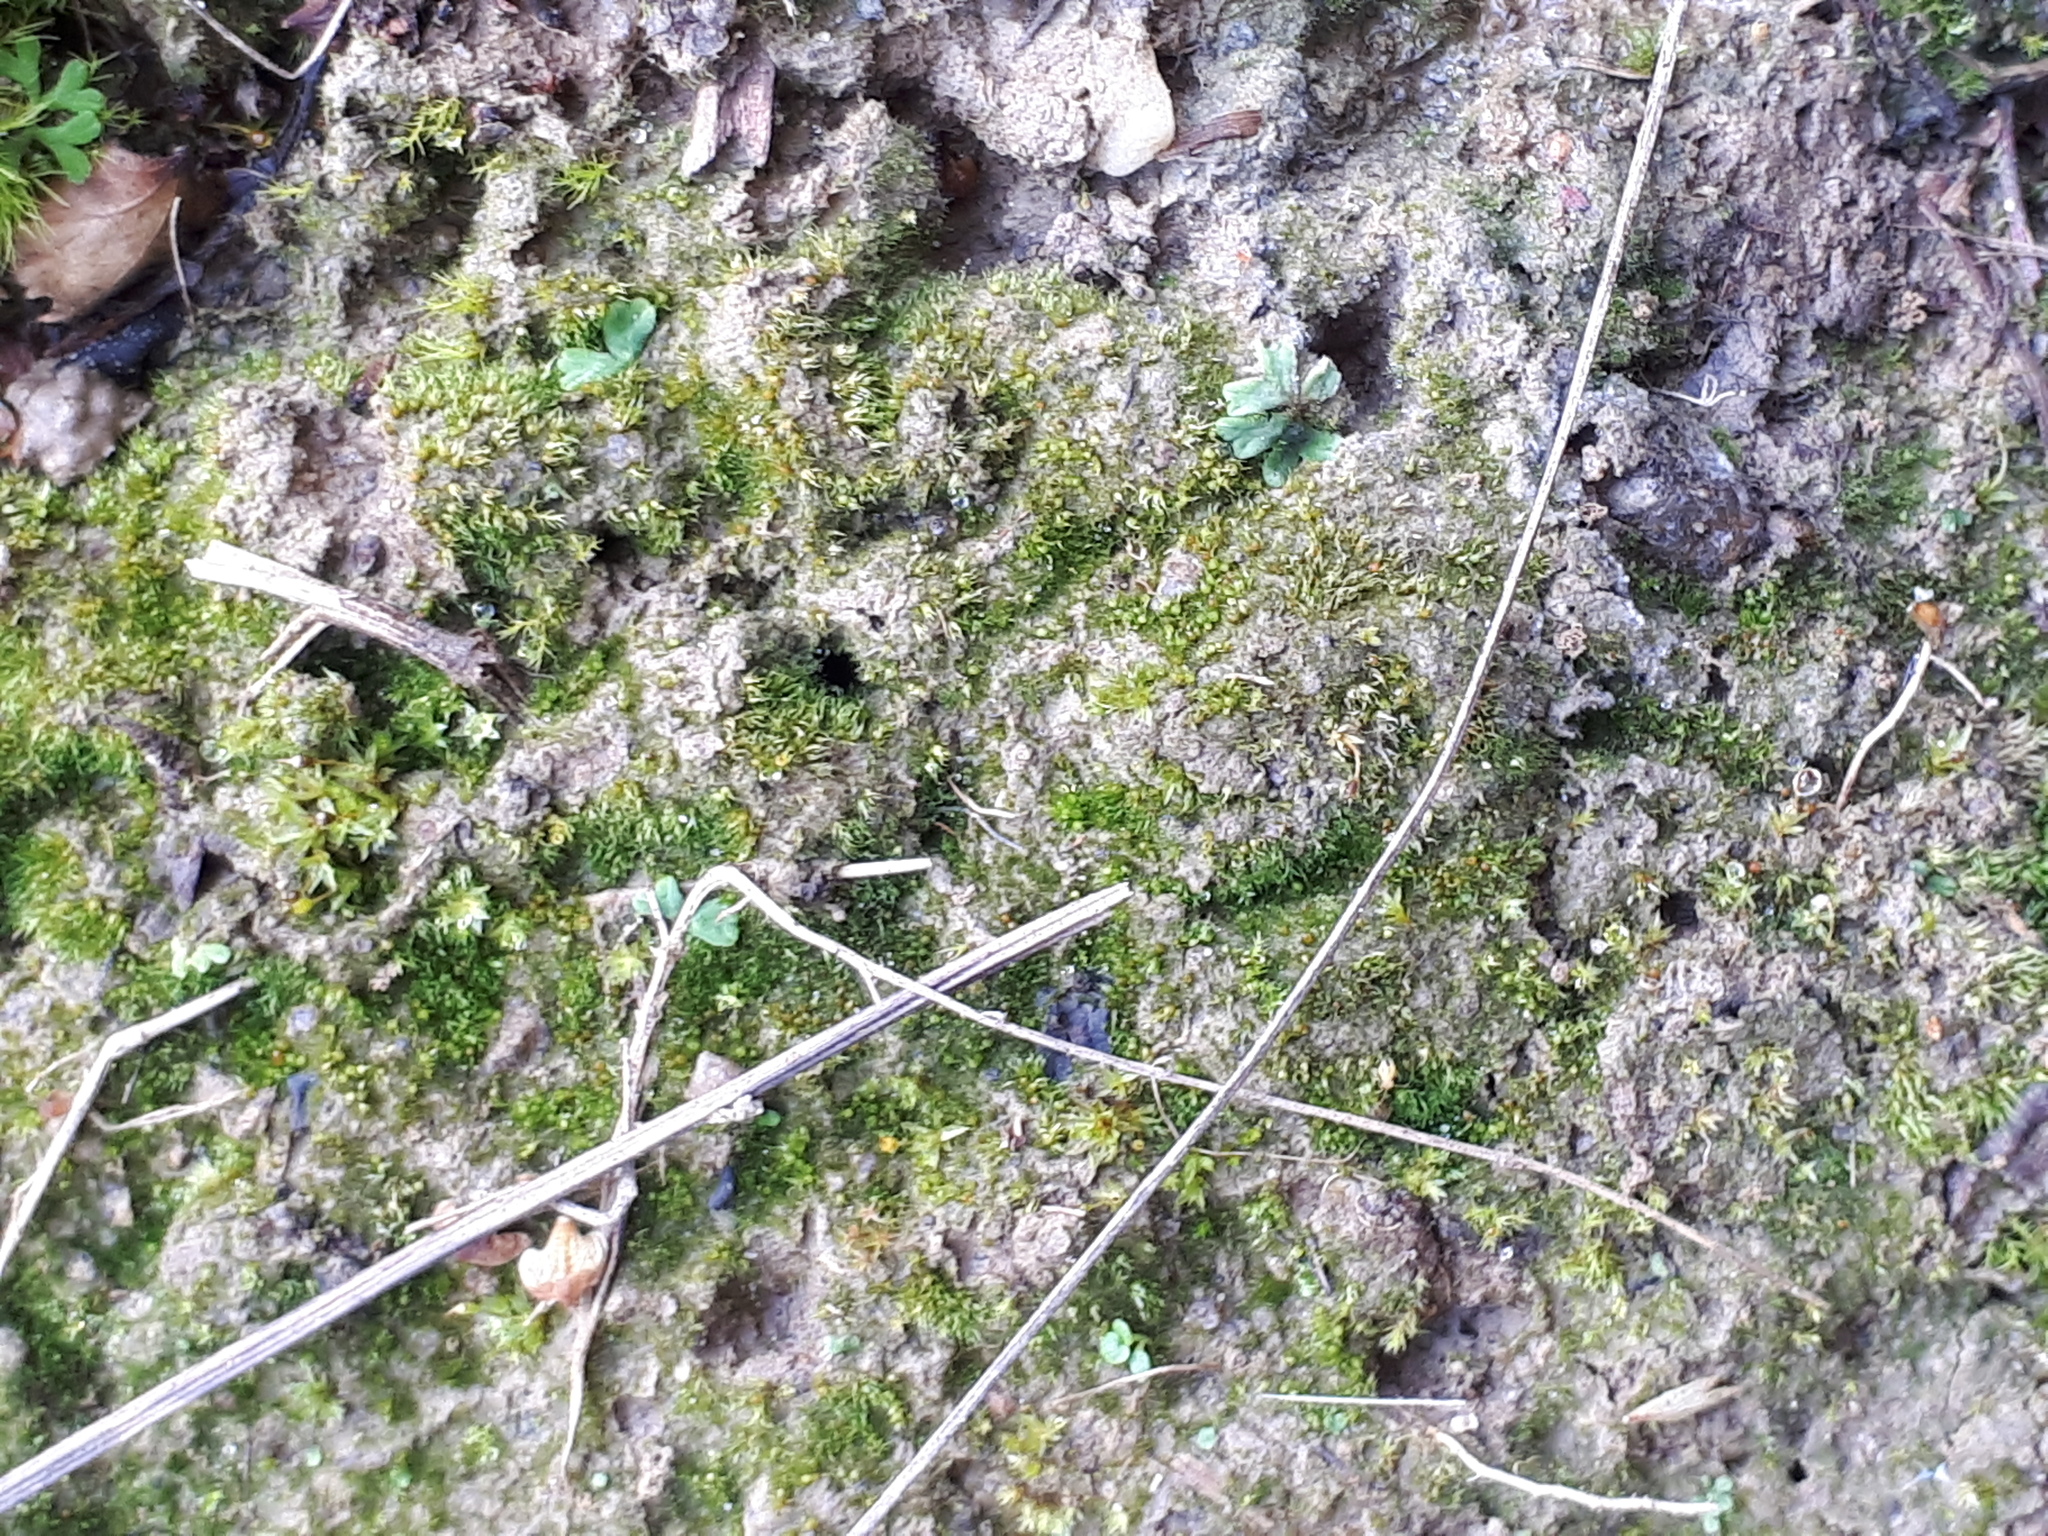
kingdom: Plantae
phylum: Marchantiophyta
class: Marchantiopsida
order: Marchantiales
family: Ricciaceae
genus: Riccia
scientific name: Riccia sorocarpa
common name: Common crystalwort
